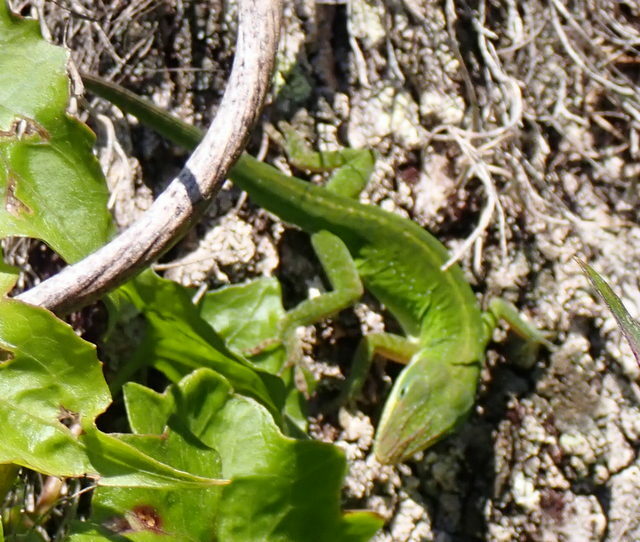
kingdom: Animalia
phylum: Chordata
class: Squamata
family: Dactyloidae
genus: Anolis
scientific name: Anolis carolinensis
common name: Green anole
